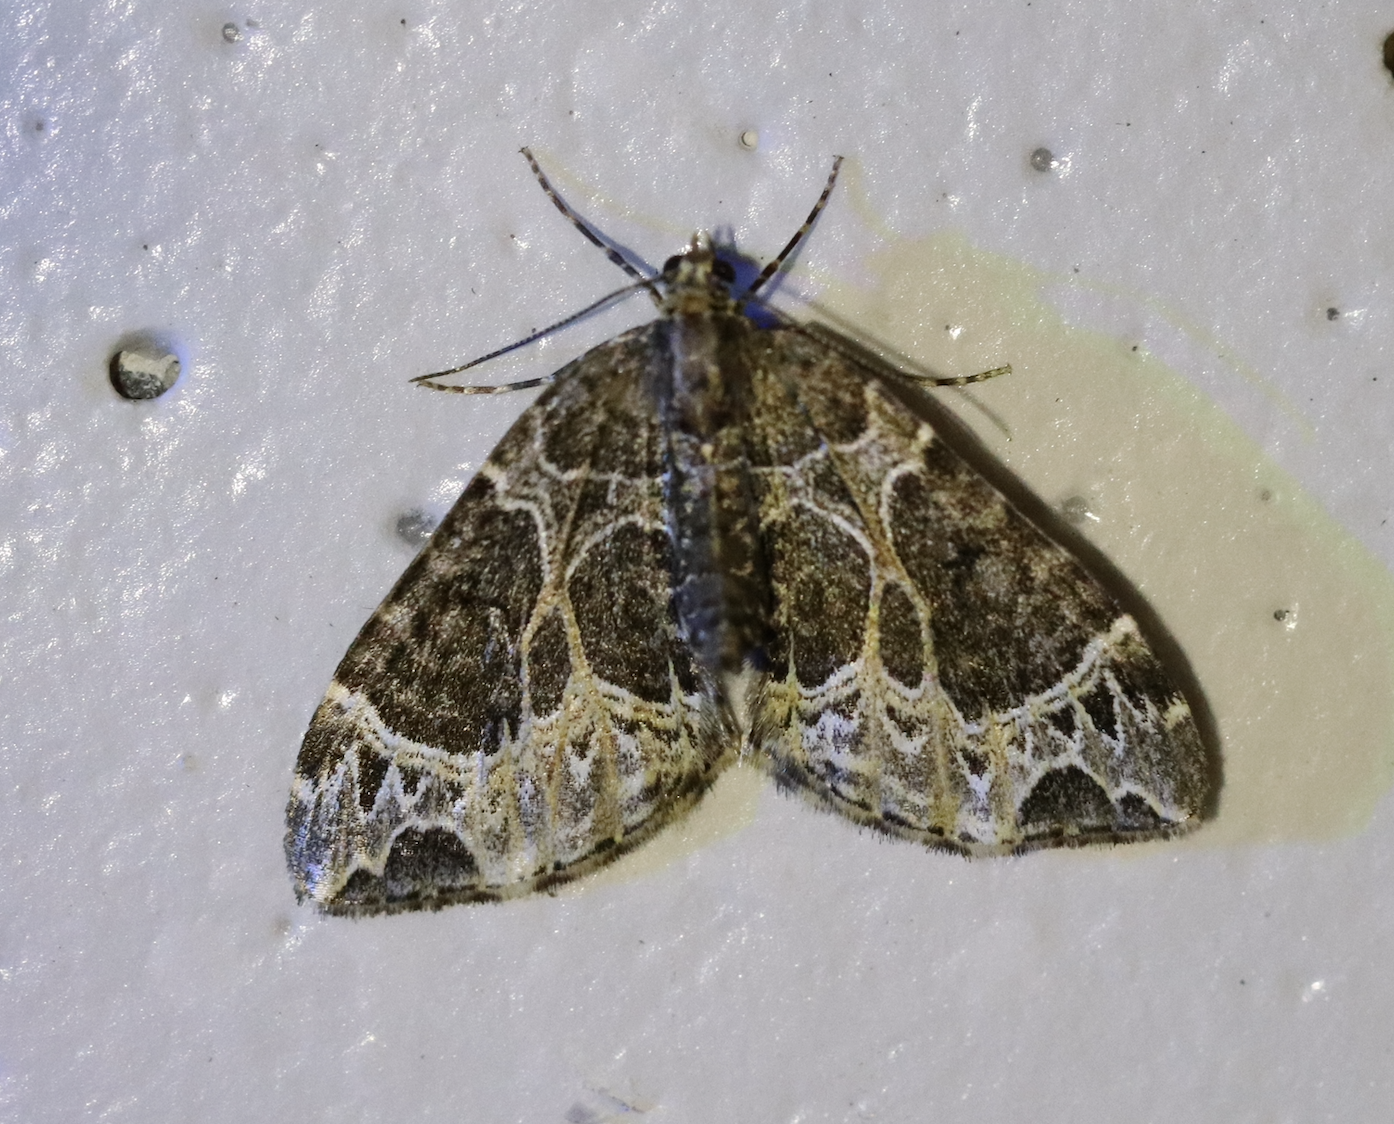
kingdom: Animalia
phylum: Arthropoda
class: Insecta
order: Lepidoptera
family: Geometridae
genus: Ecliptopera
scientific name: Ecliptopera silaceata
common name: Small phoenix
